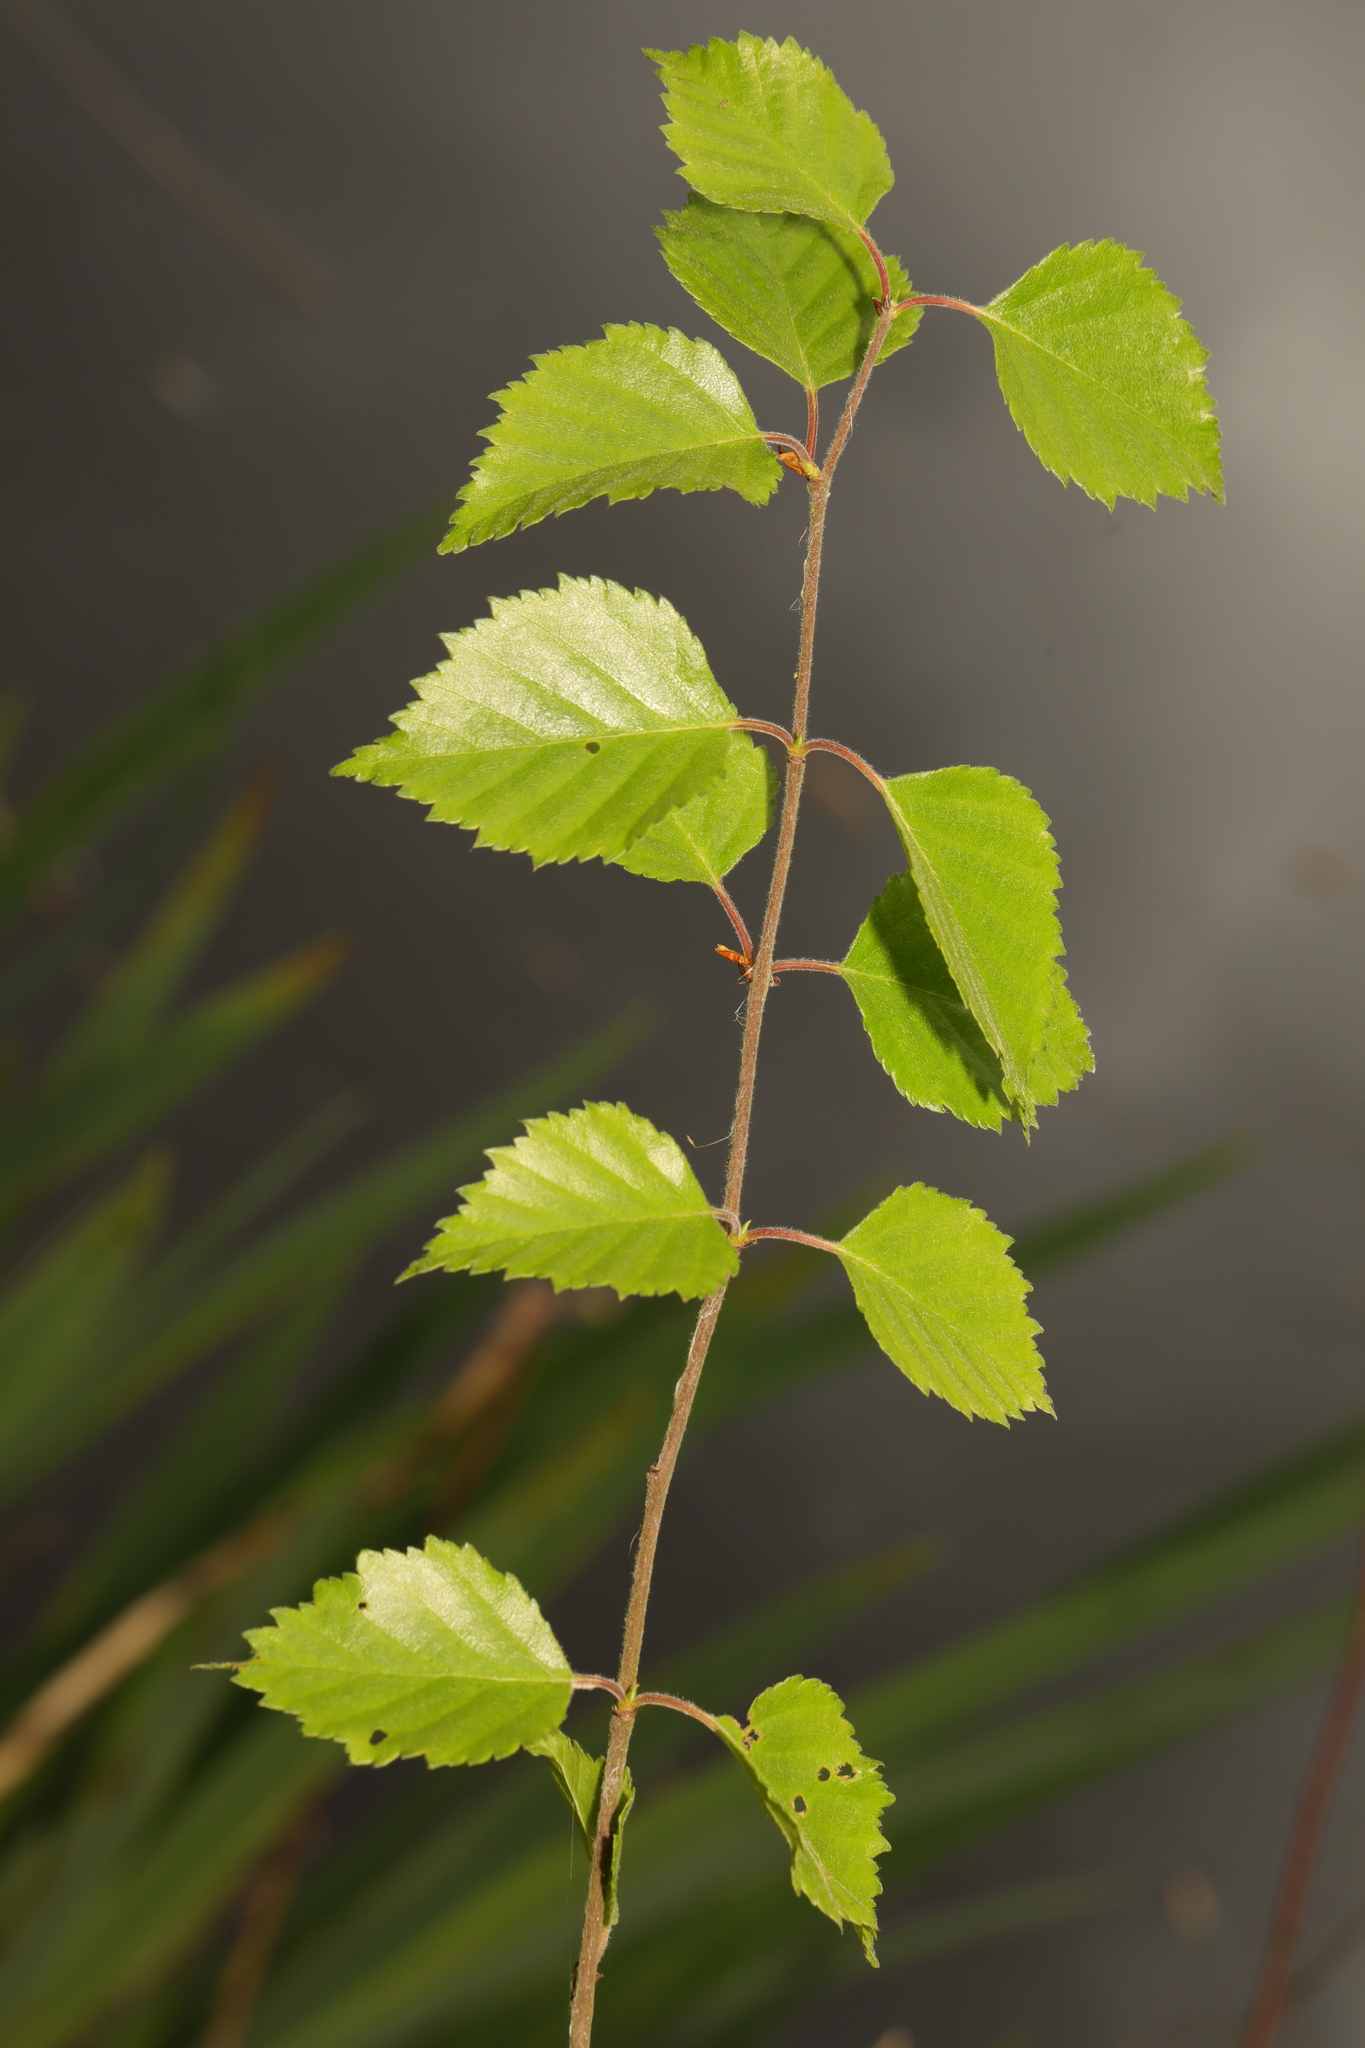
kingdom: Plantae
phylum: Tracheophyta
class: Magnoliopsida
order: Fagales
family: Betulaceae
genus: Betula
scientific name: Betula pendula
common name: Silver birch
